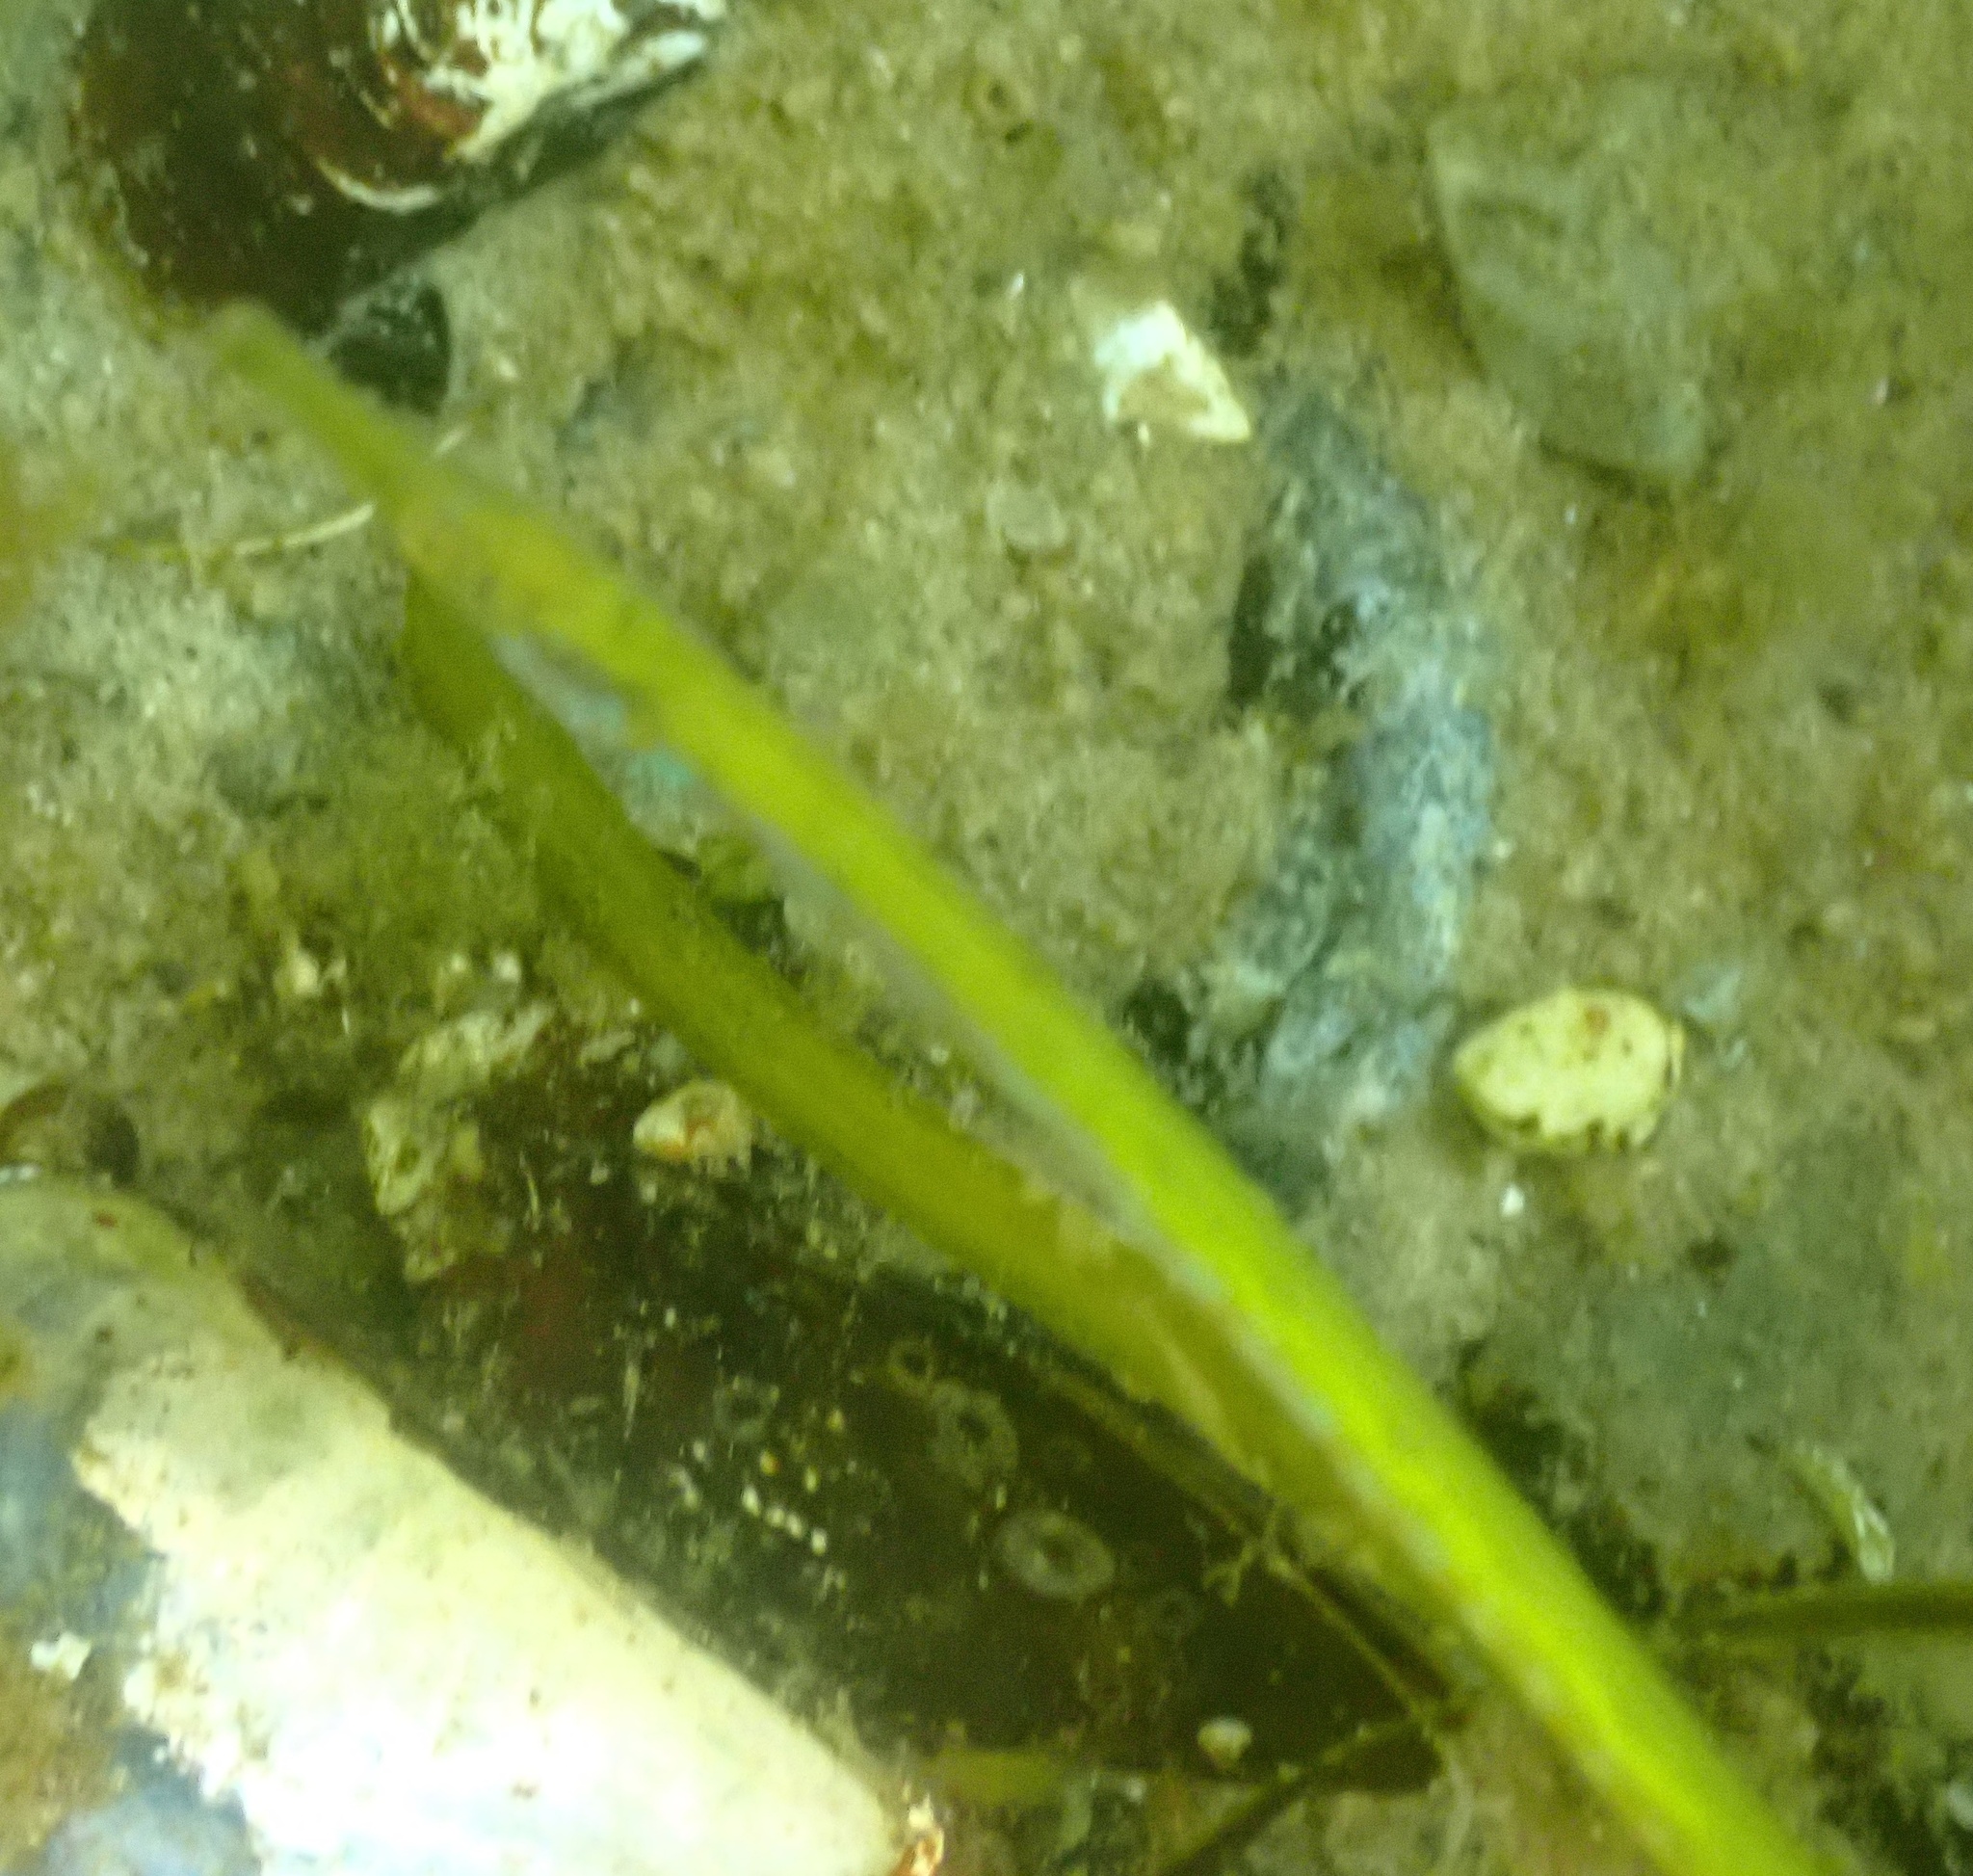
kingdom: Animalia
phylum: Chordata
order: Syngnathiformes
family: Syngnathidae
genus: Nerophis
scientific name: Nerophis ophidion
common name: Straight-nosed pipefish
